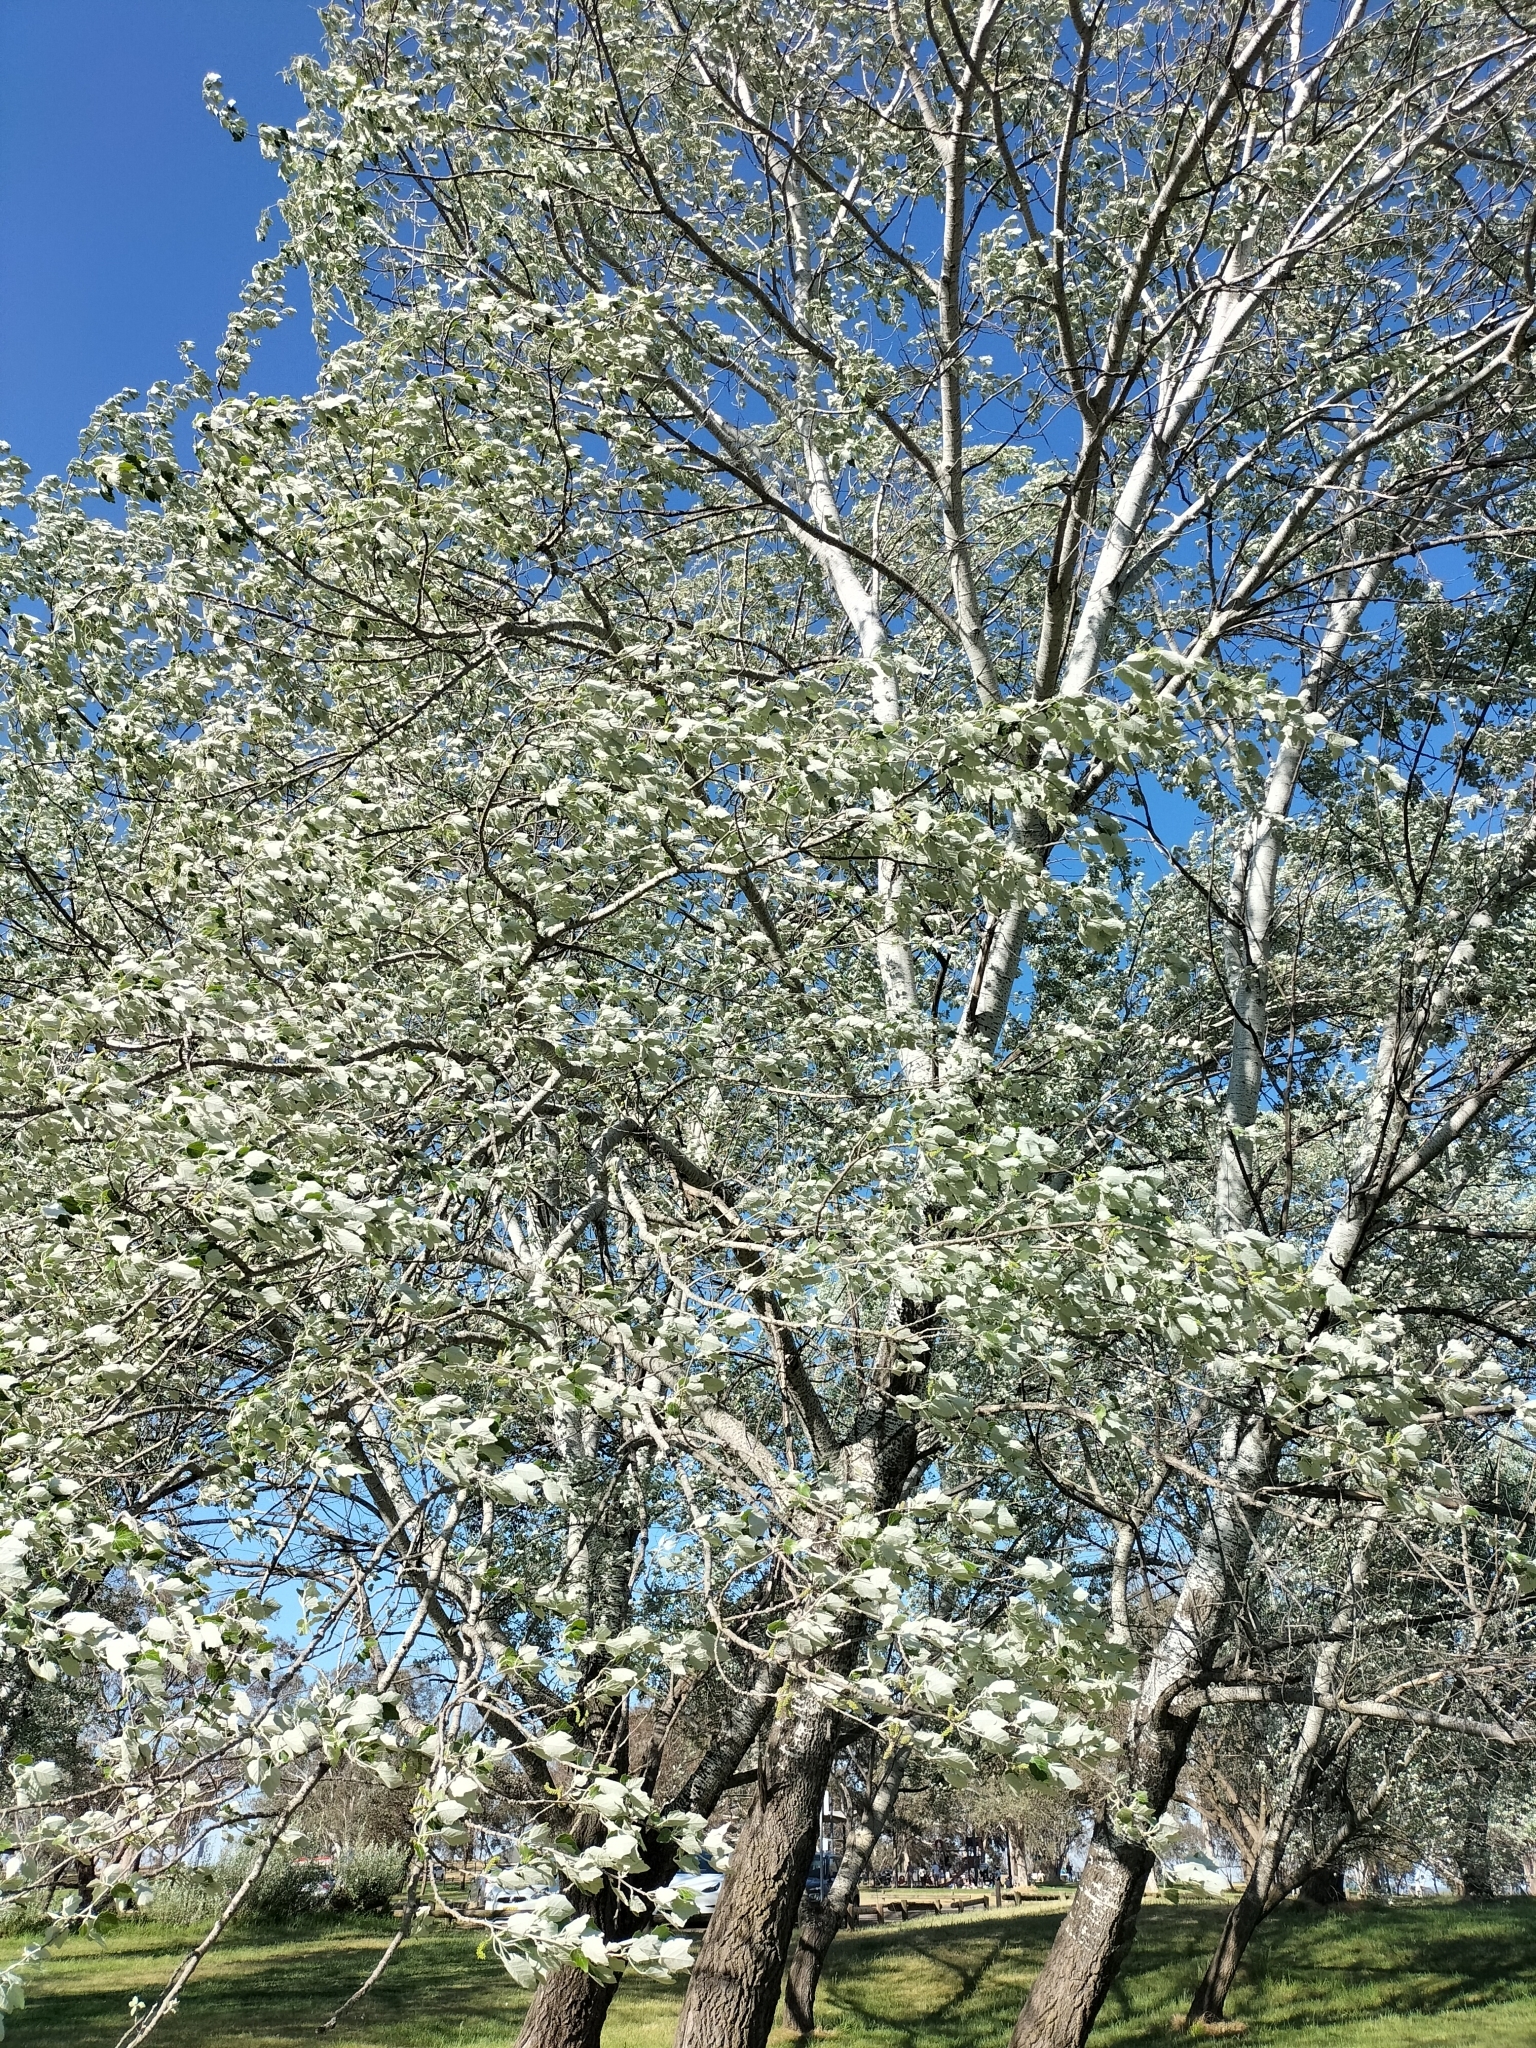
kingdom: Plantae
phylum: Tracheophyta
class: Magnoliopsida
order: Malpighiales
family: Salicaceae
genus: Populus
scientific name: Populus alba
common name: White poplar
